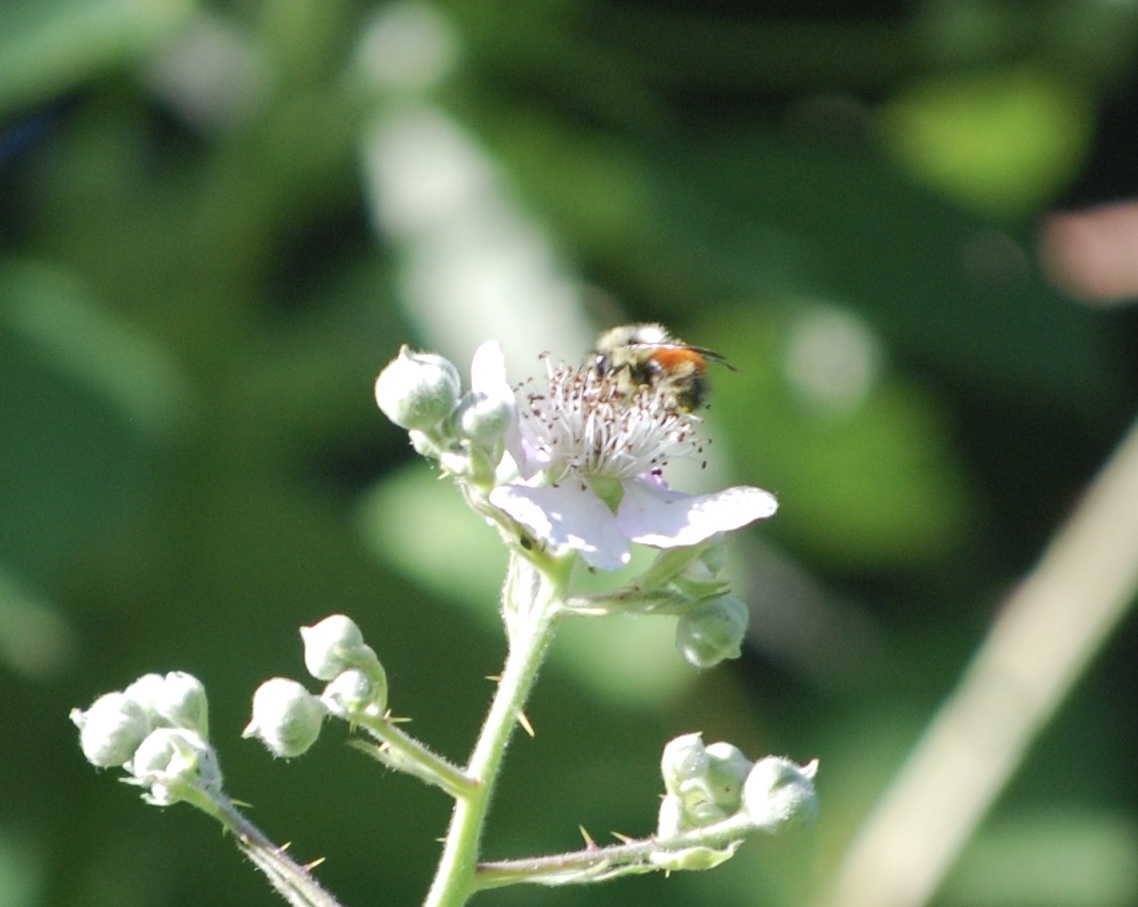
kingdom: Animalia
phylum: Arthropoda
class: Insecta
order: Hymenoptera
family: Apidae
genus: Bombus
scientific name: Bombus melanopygus
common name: Black tail bumble bee
